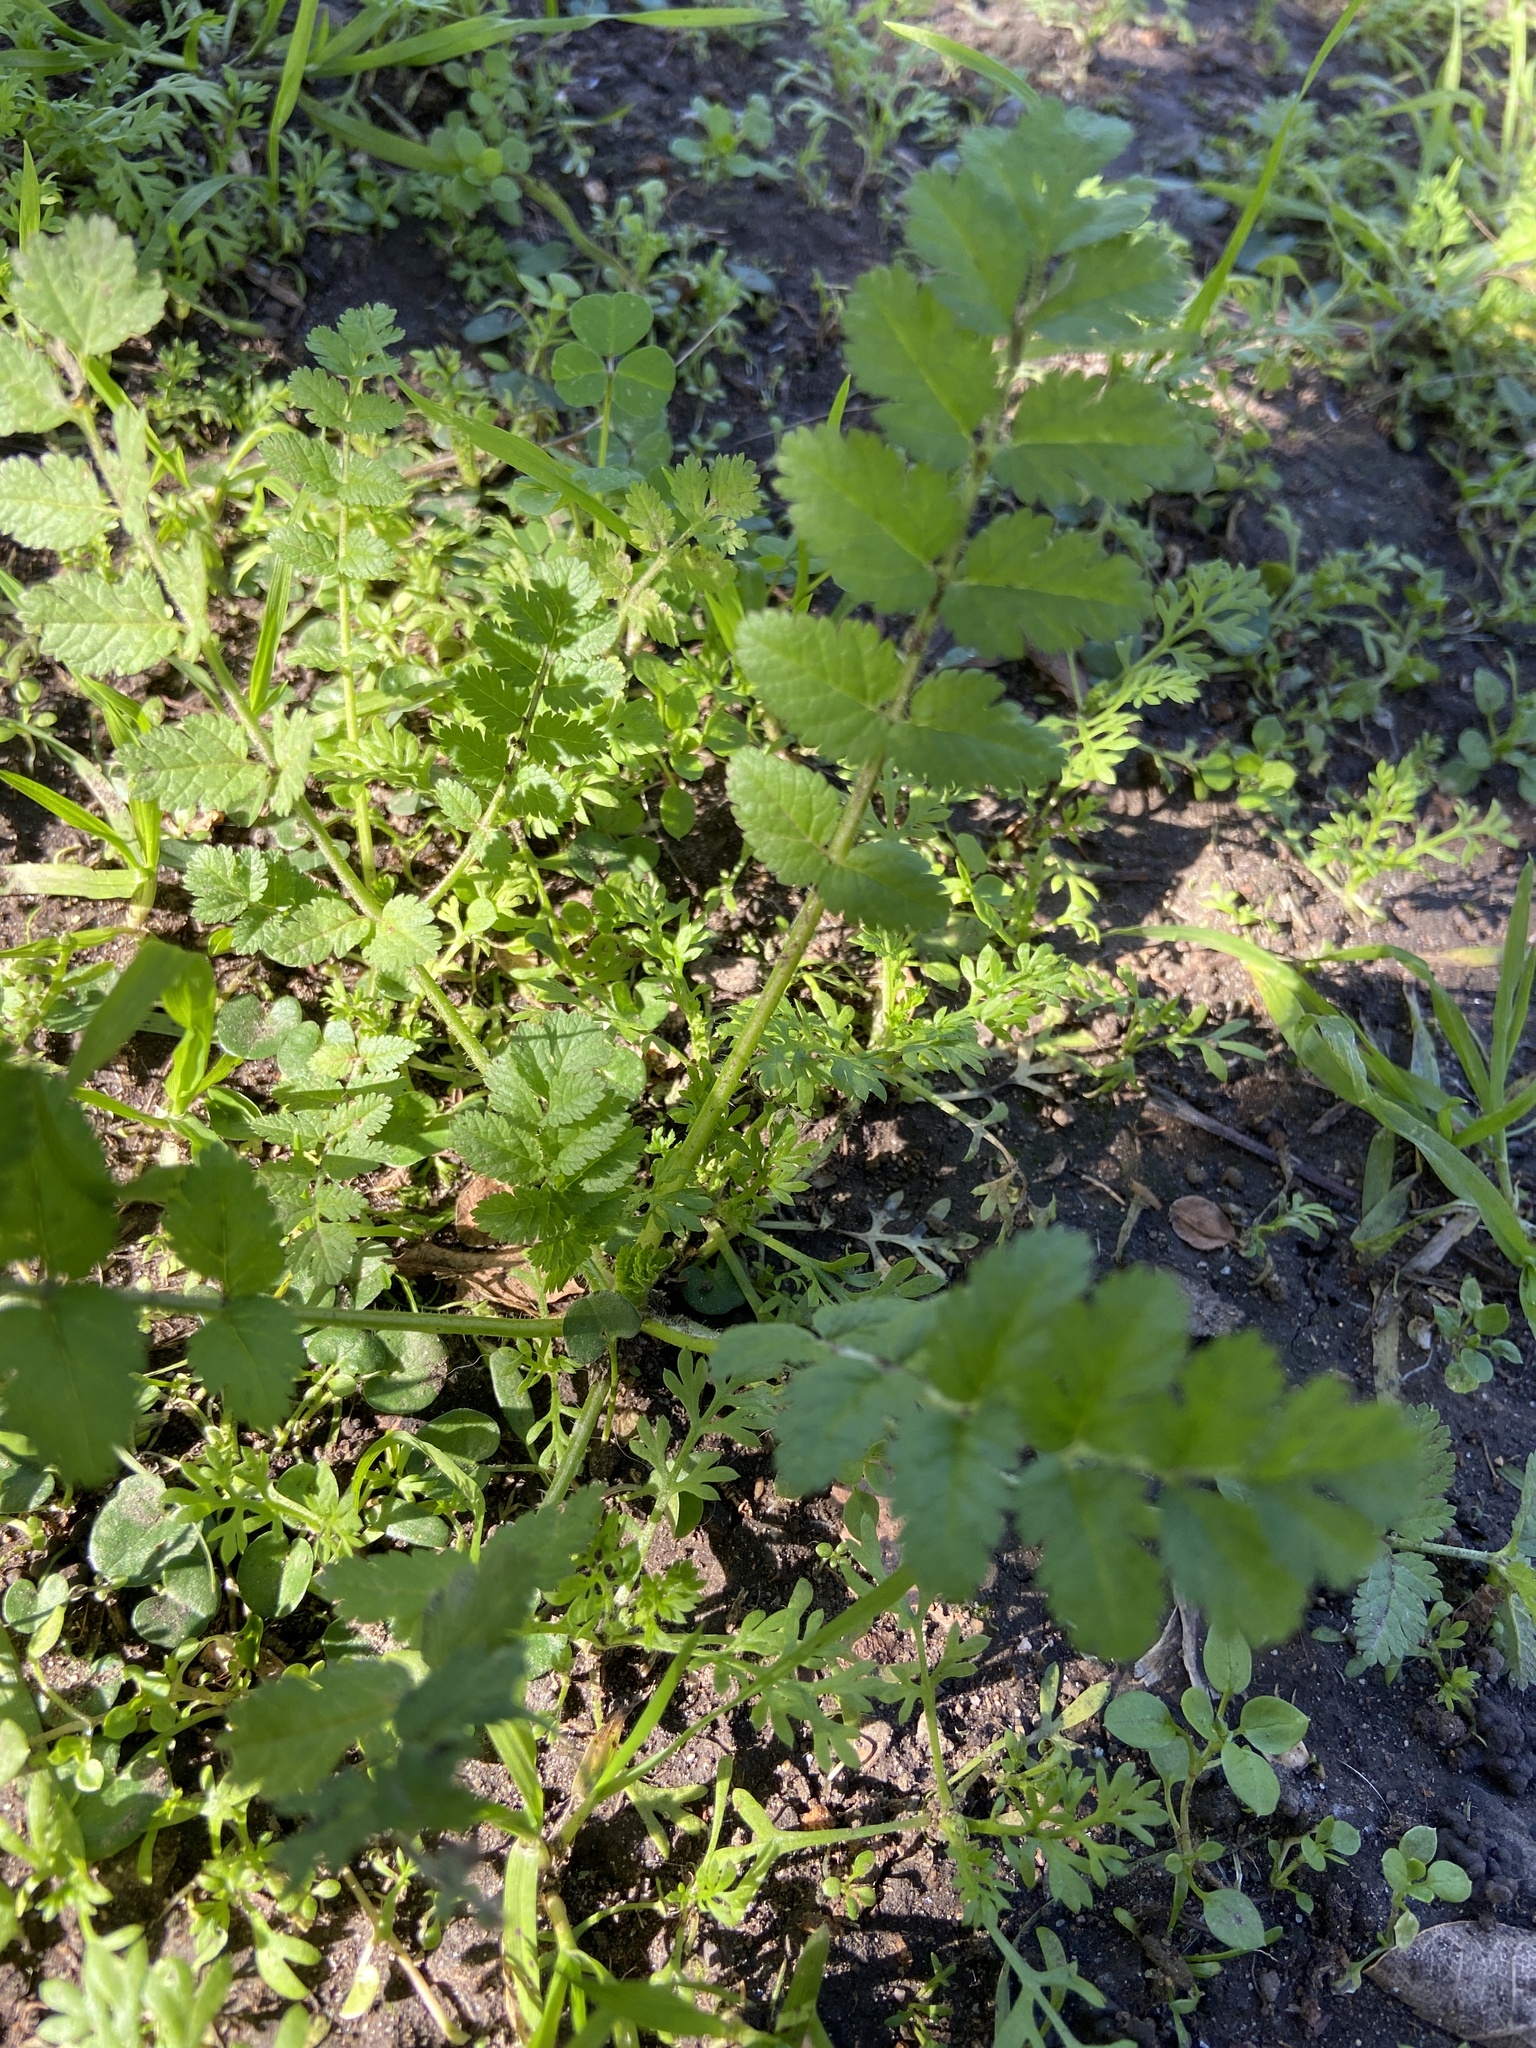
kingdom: Plantae
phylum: Tracheophyta
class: Magnoliopsida
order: Geraniales
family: Geraniaceae
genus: Erodium
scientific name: Erodium moschatum
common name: Musk stork's-bill
